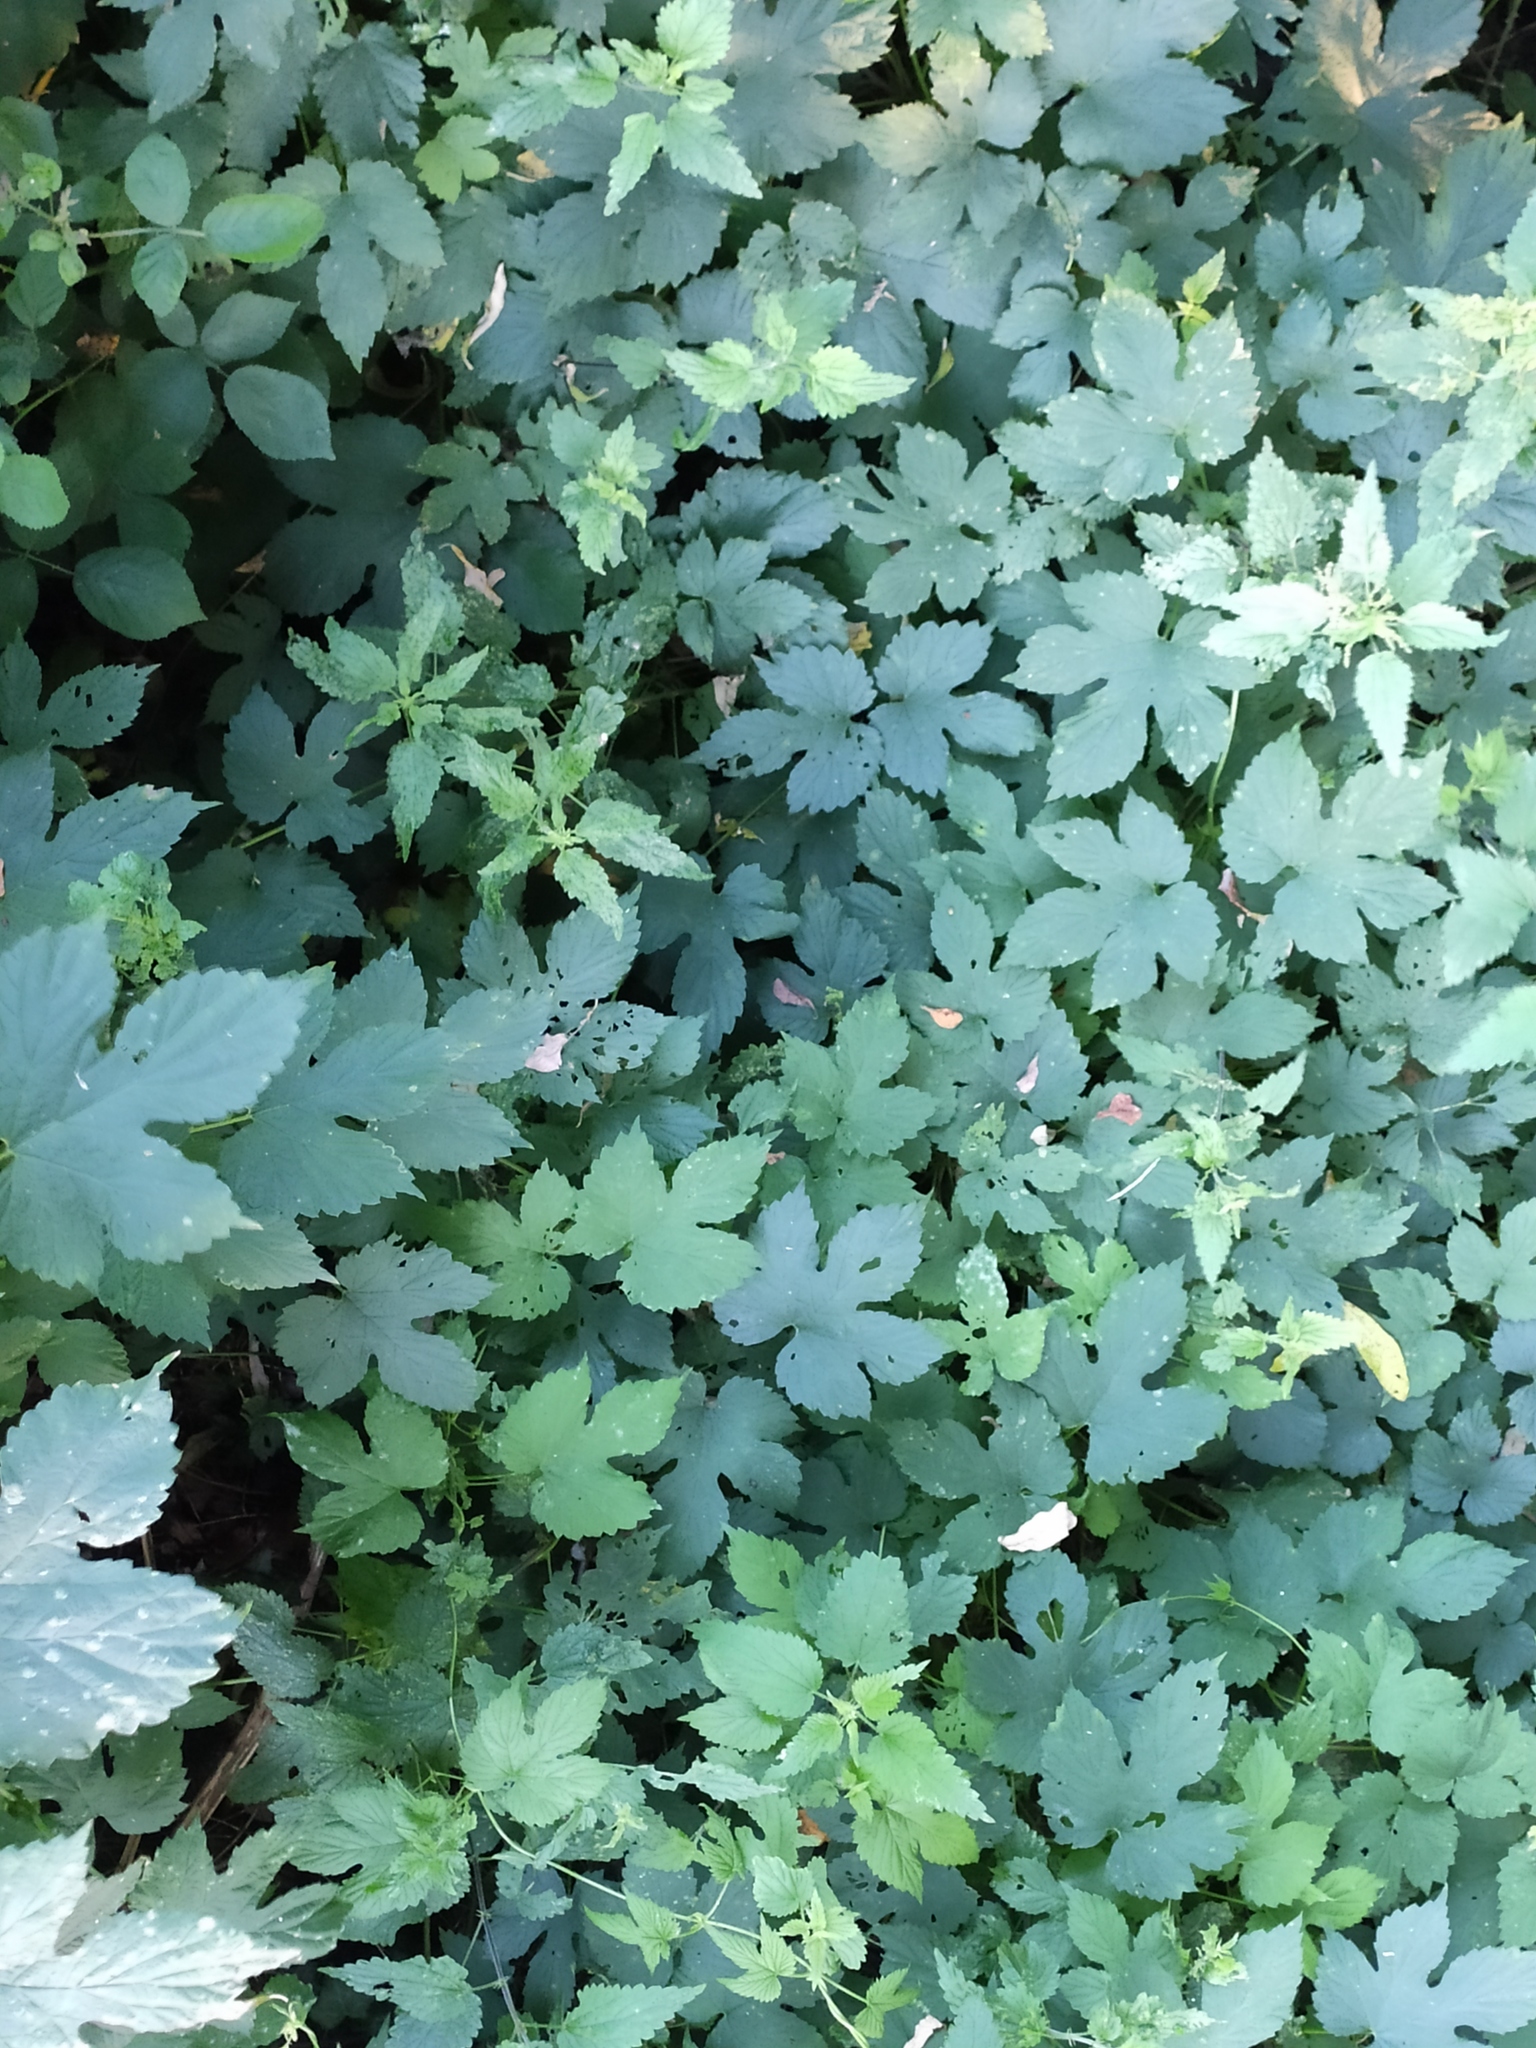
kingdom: Plantae
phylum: Tracheophyta
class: Magnoliopsida
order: Rosales
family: Cannabaceae
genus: Humulus
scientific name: Humulus lupulus
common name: Hop
